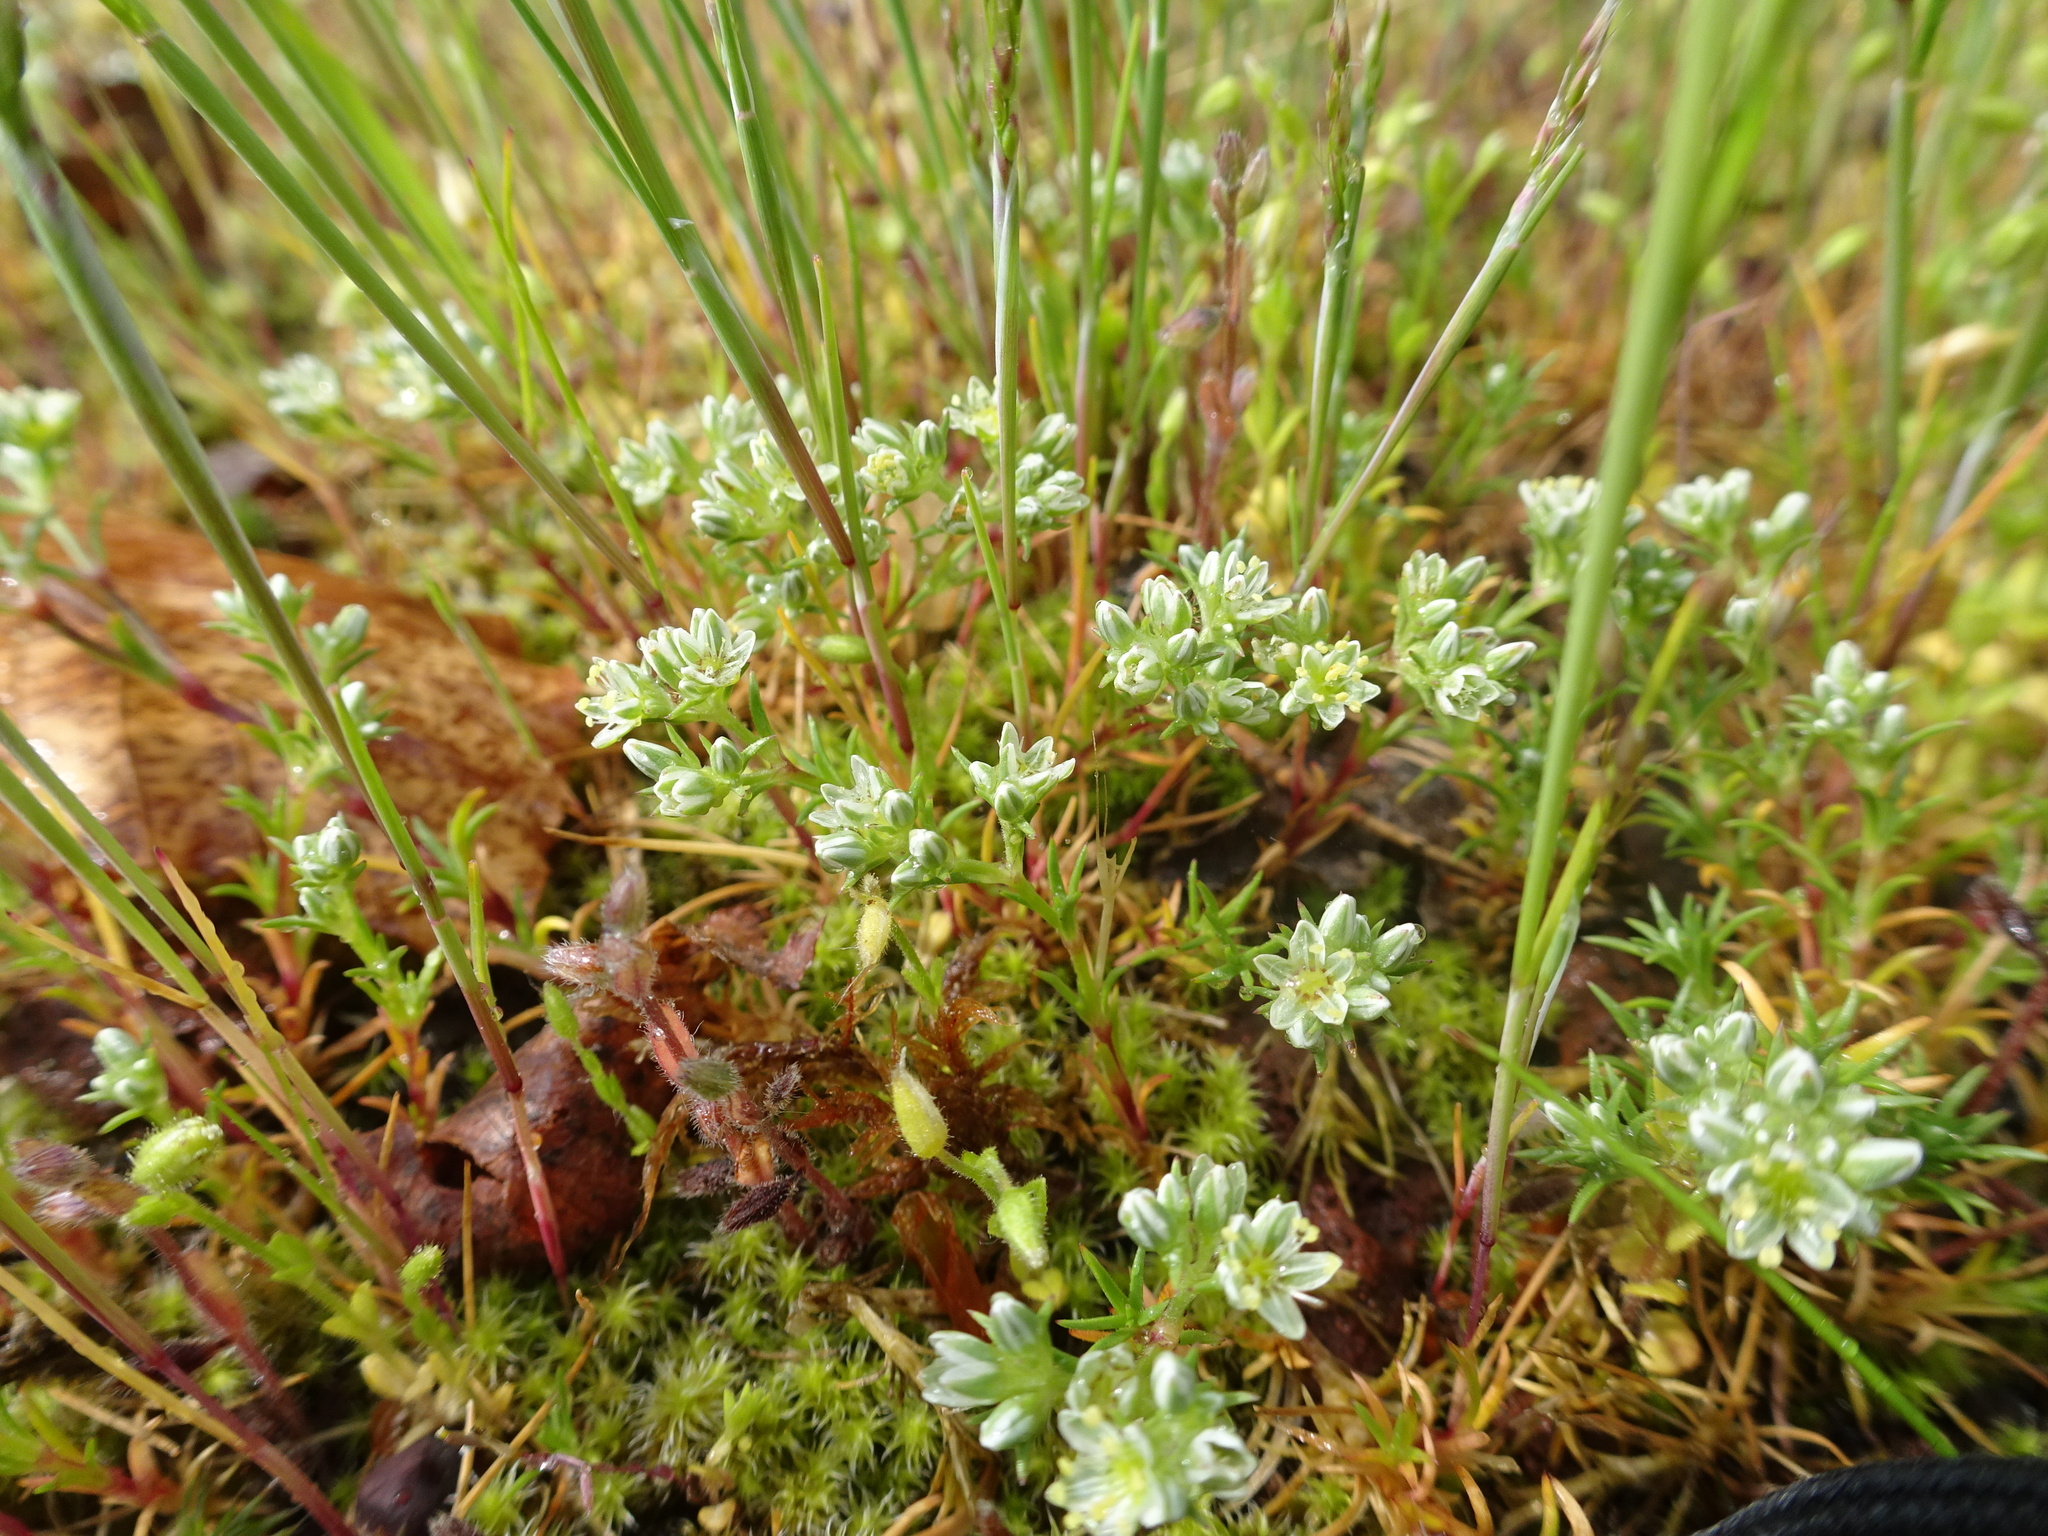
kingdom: Plantae
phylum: Tracheophyta
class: Magnoliopsida
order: Caryophyllales
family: Caryophyllaceae
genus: Scleranthus
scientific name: Scleranthus perennis
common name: Perennial knawel
